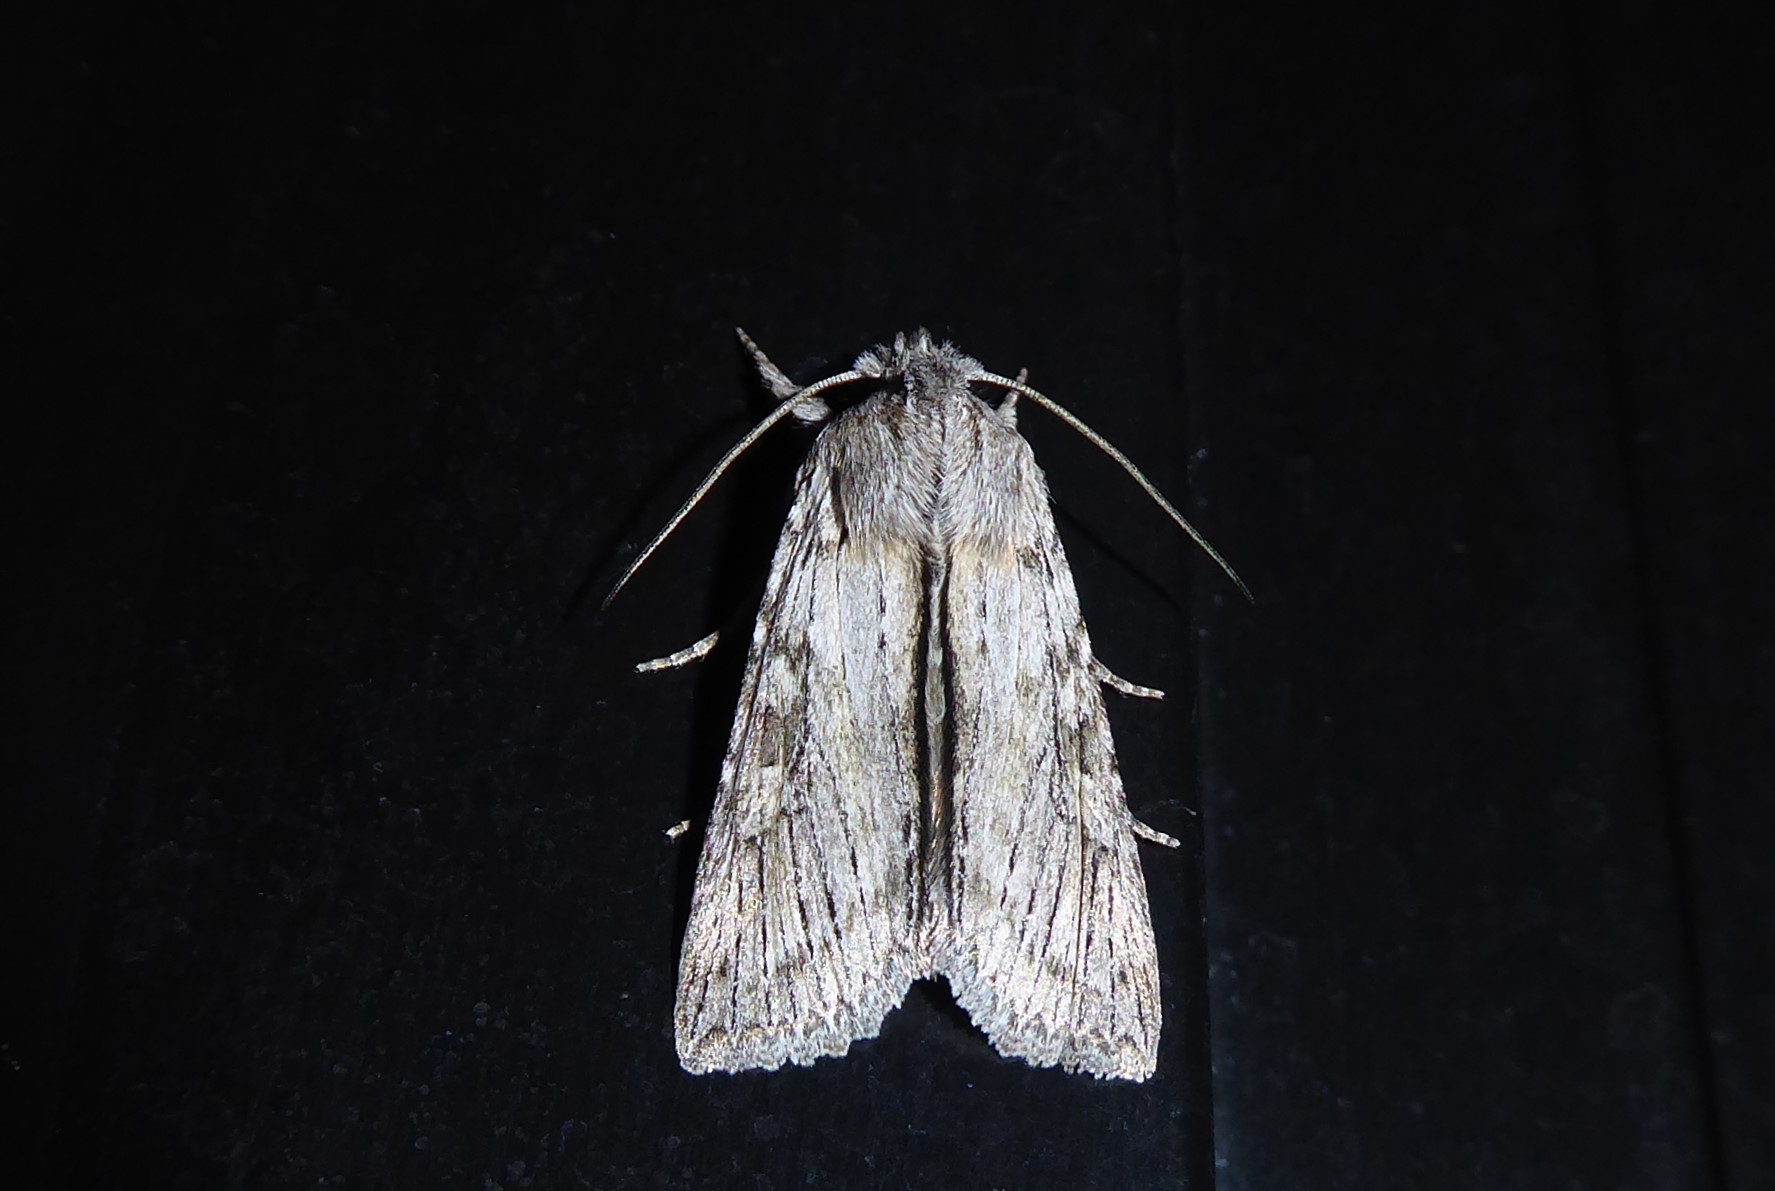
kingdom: Animalia
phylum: Arthropoda
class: Insecta
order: Lepidoptera
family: Noctuidae
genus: Physetica
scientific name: Physetica phricias
